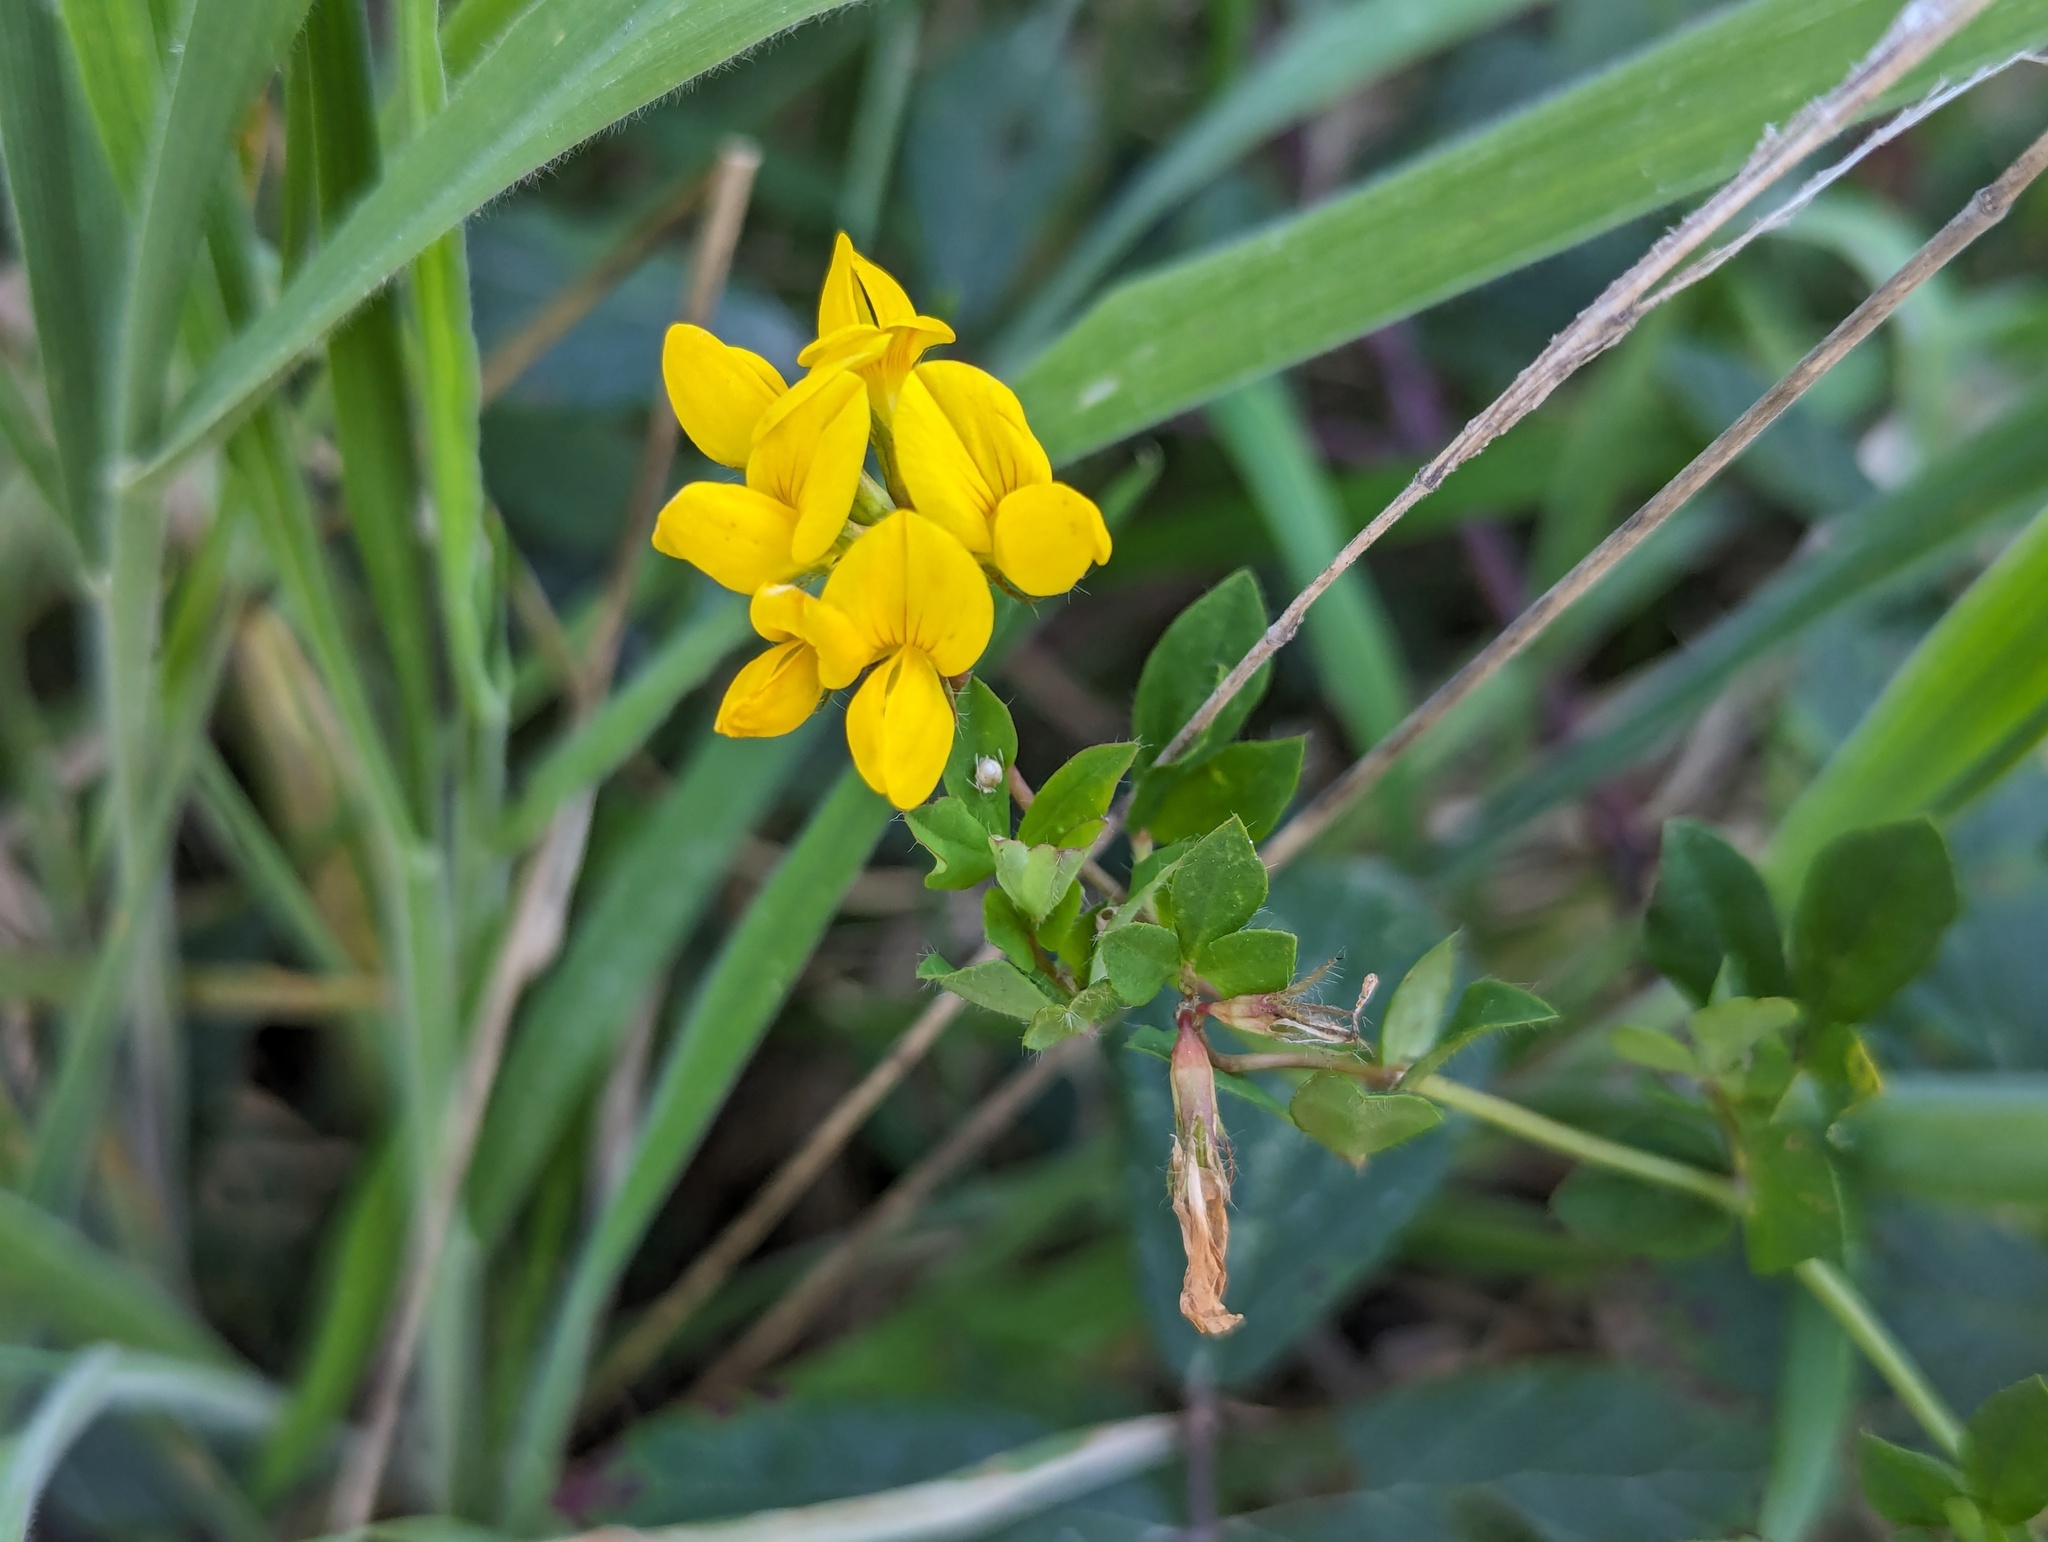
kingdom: Plantae
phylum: Tracheophyta
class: Magnoliopsida
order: Fabales
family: Fabaceae
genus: Lotus
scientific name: Lotus pedunculatus
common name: Greater birdsfoot-trefoil
